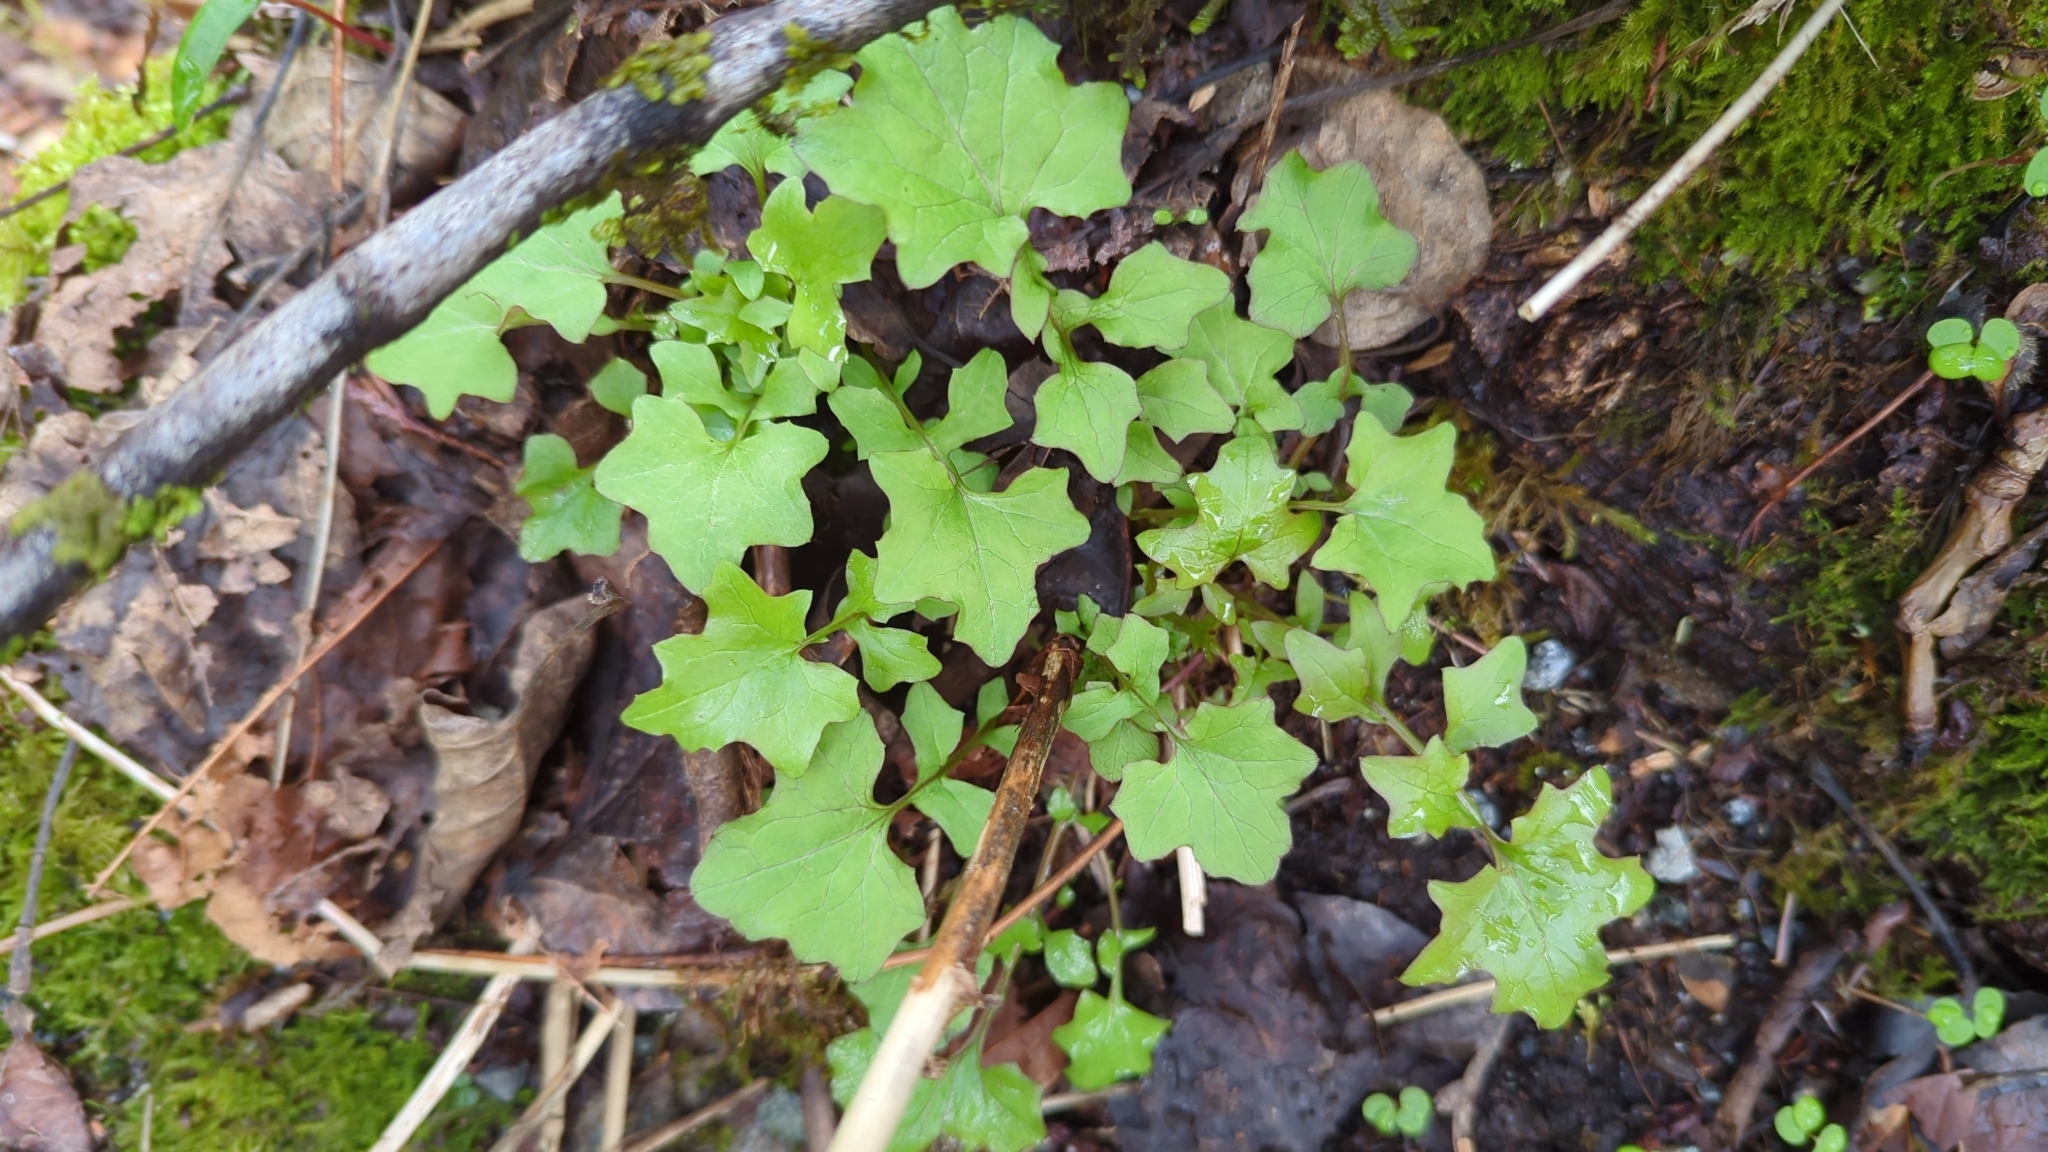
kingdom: Plantae
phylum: Tracheophyta
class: Magnoliopsida
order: Asterales
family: Asteraceae
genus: Mycelis
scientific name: Mycelis muralis
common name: Wall lettuce
